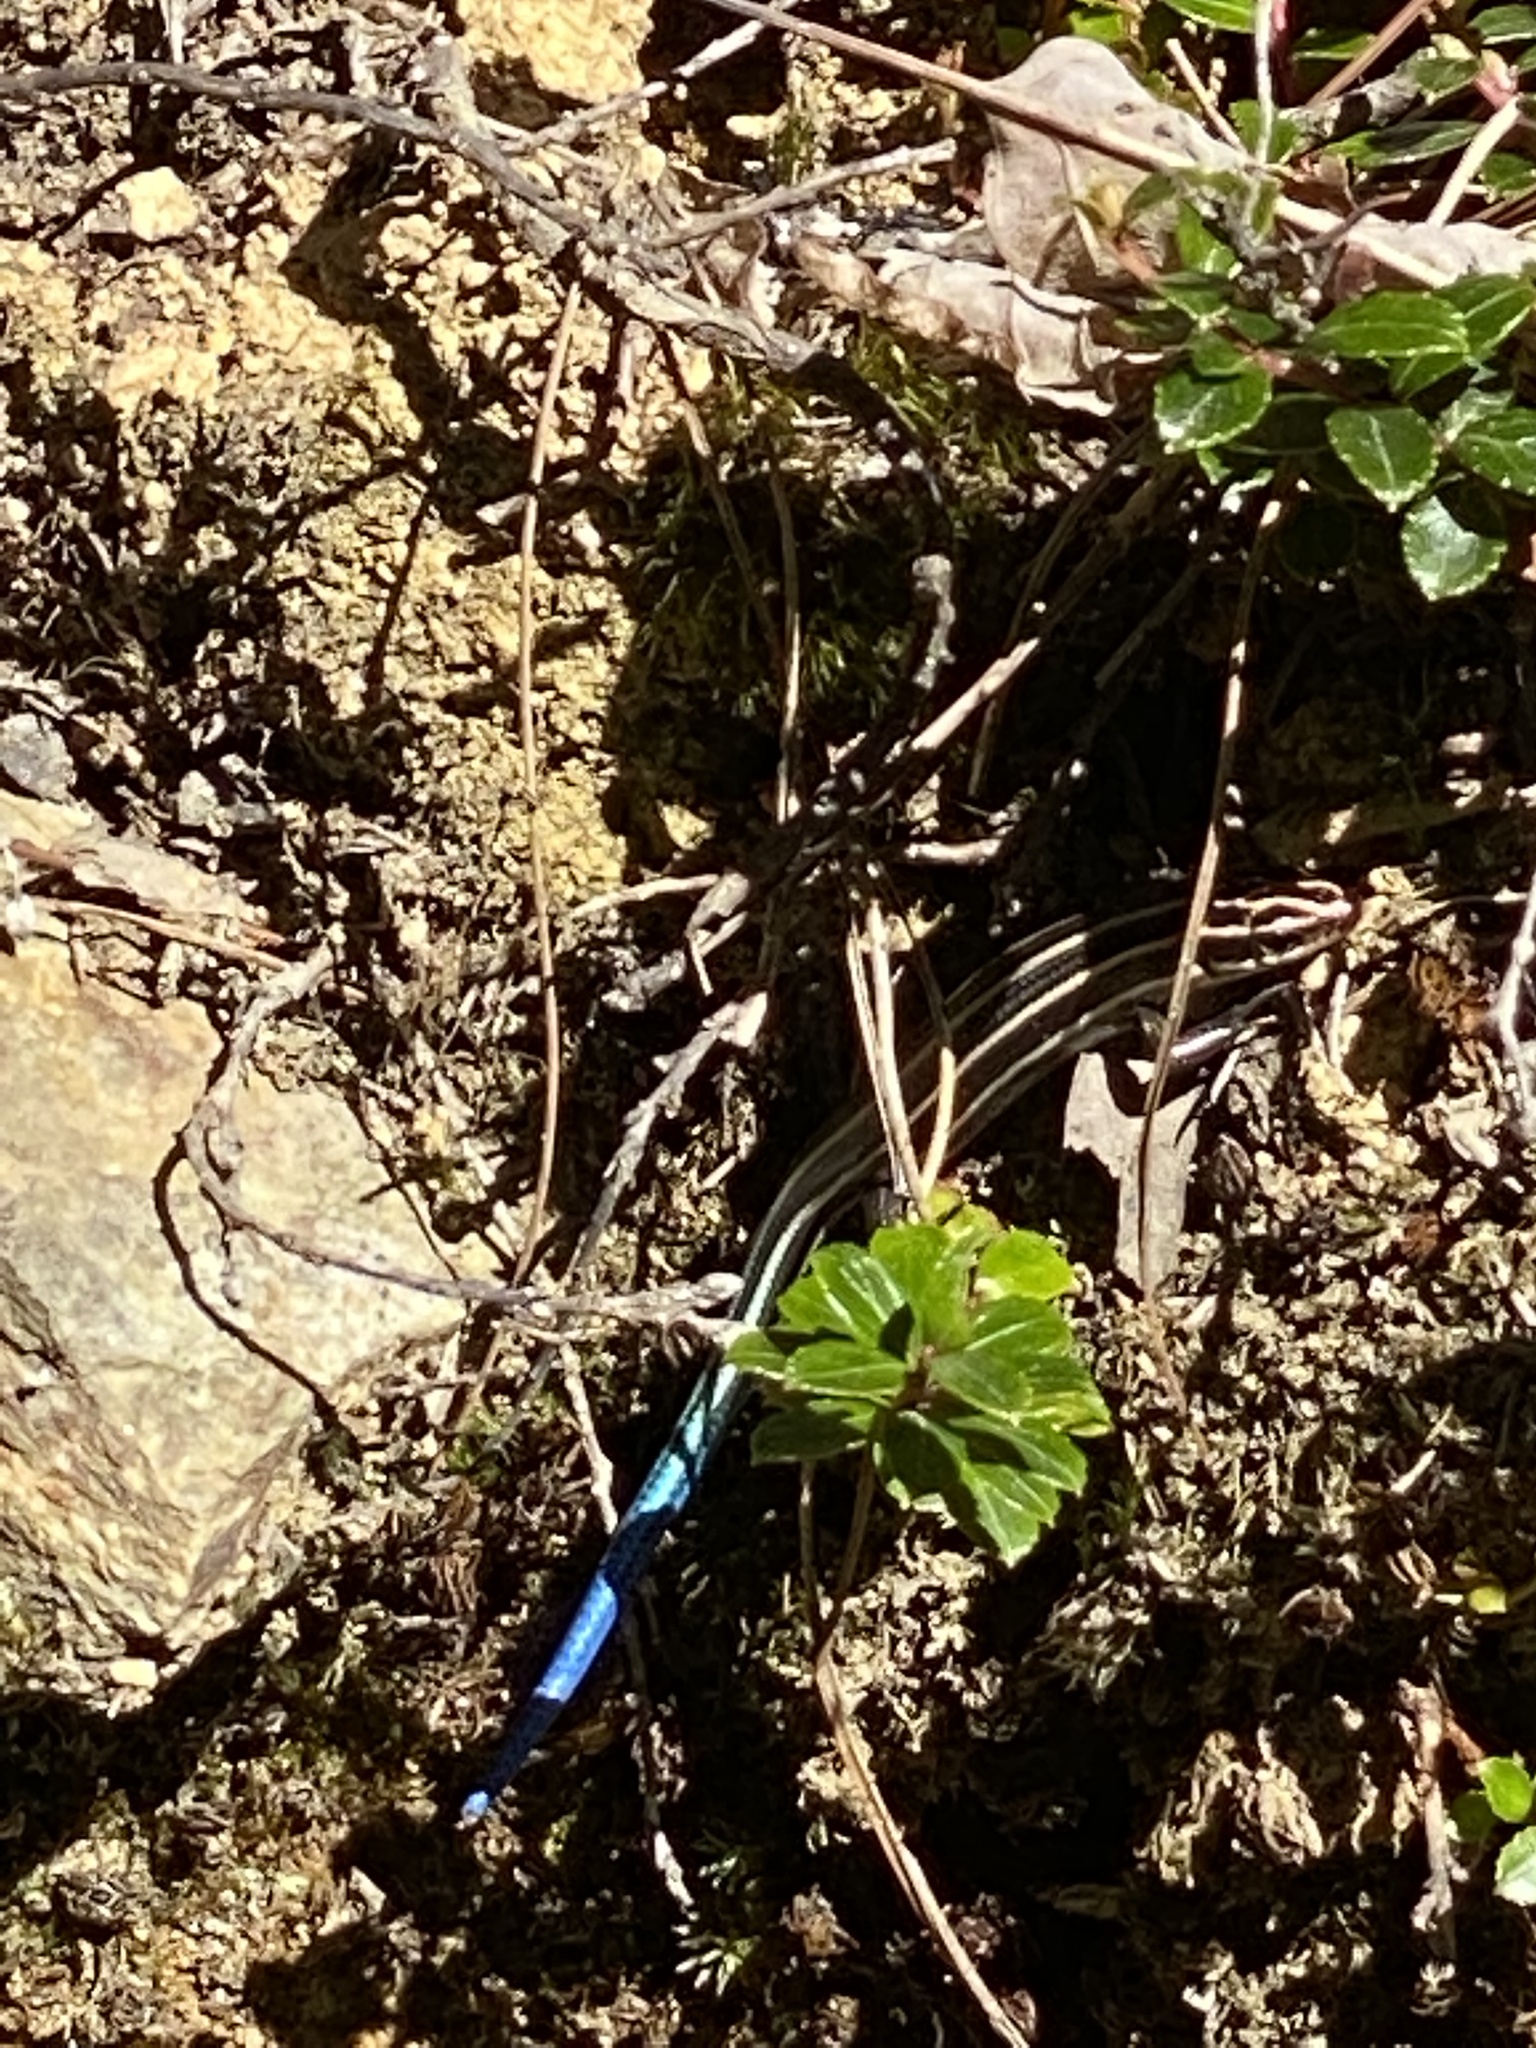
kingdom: Animalia
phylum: Chordata
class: Squamata
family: Scincidae
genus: Plestiodon
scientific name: Plestiodon elegans
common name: Shanghai elegant skink
